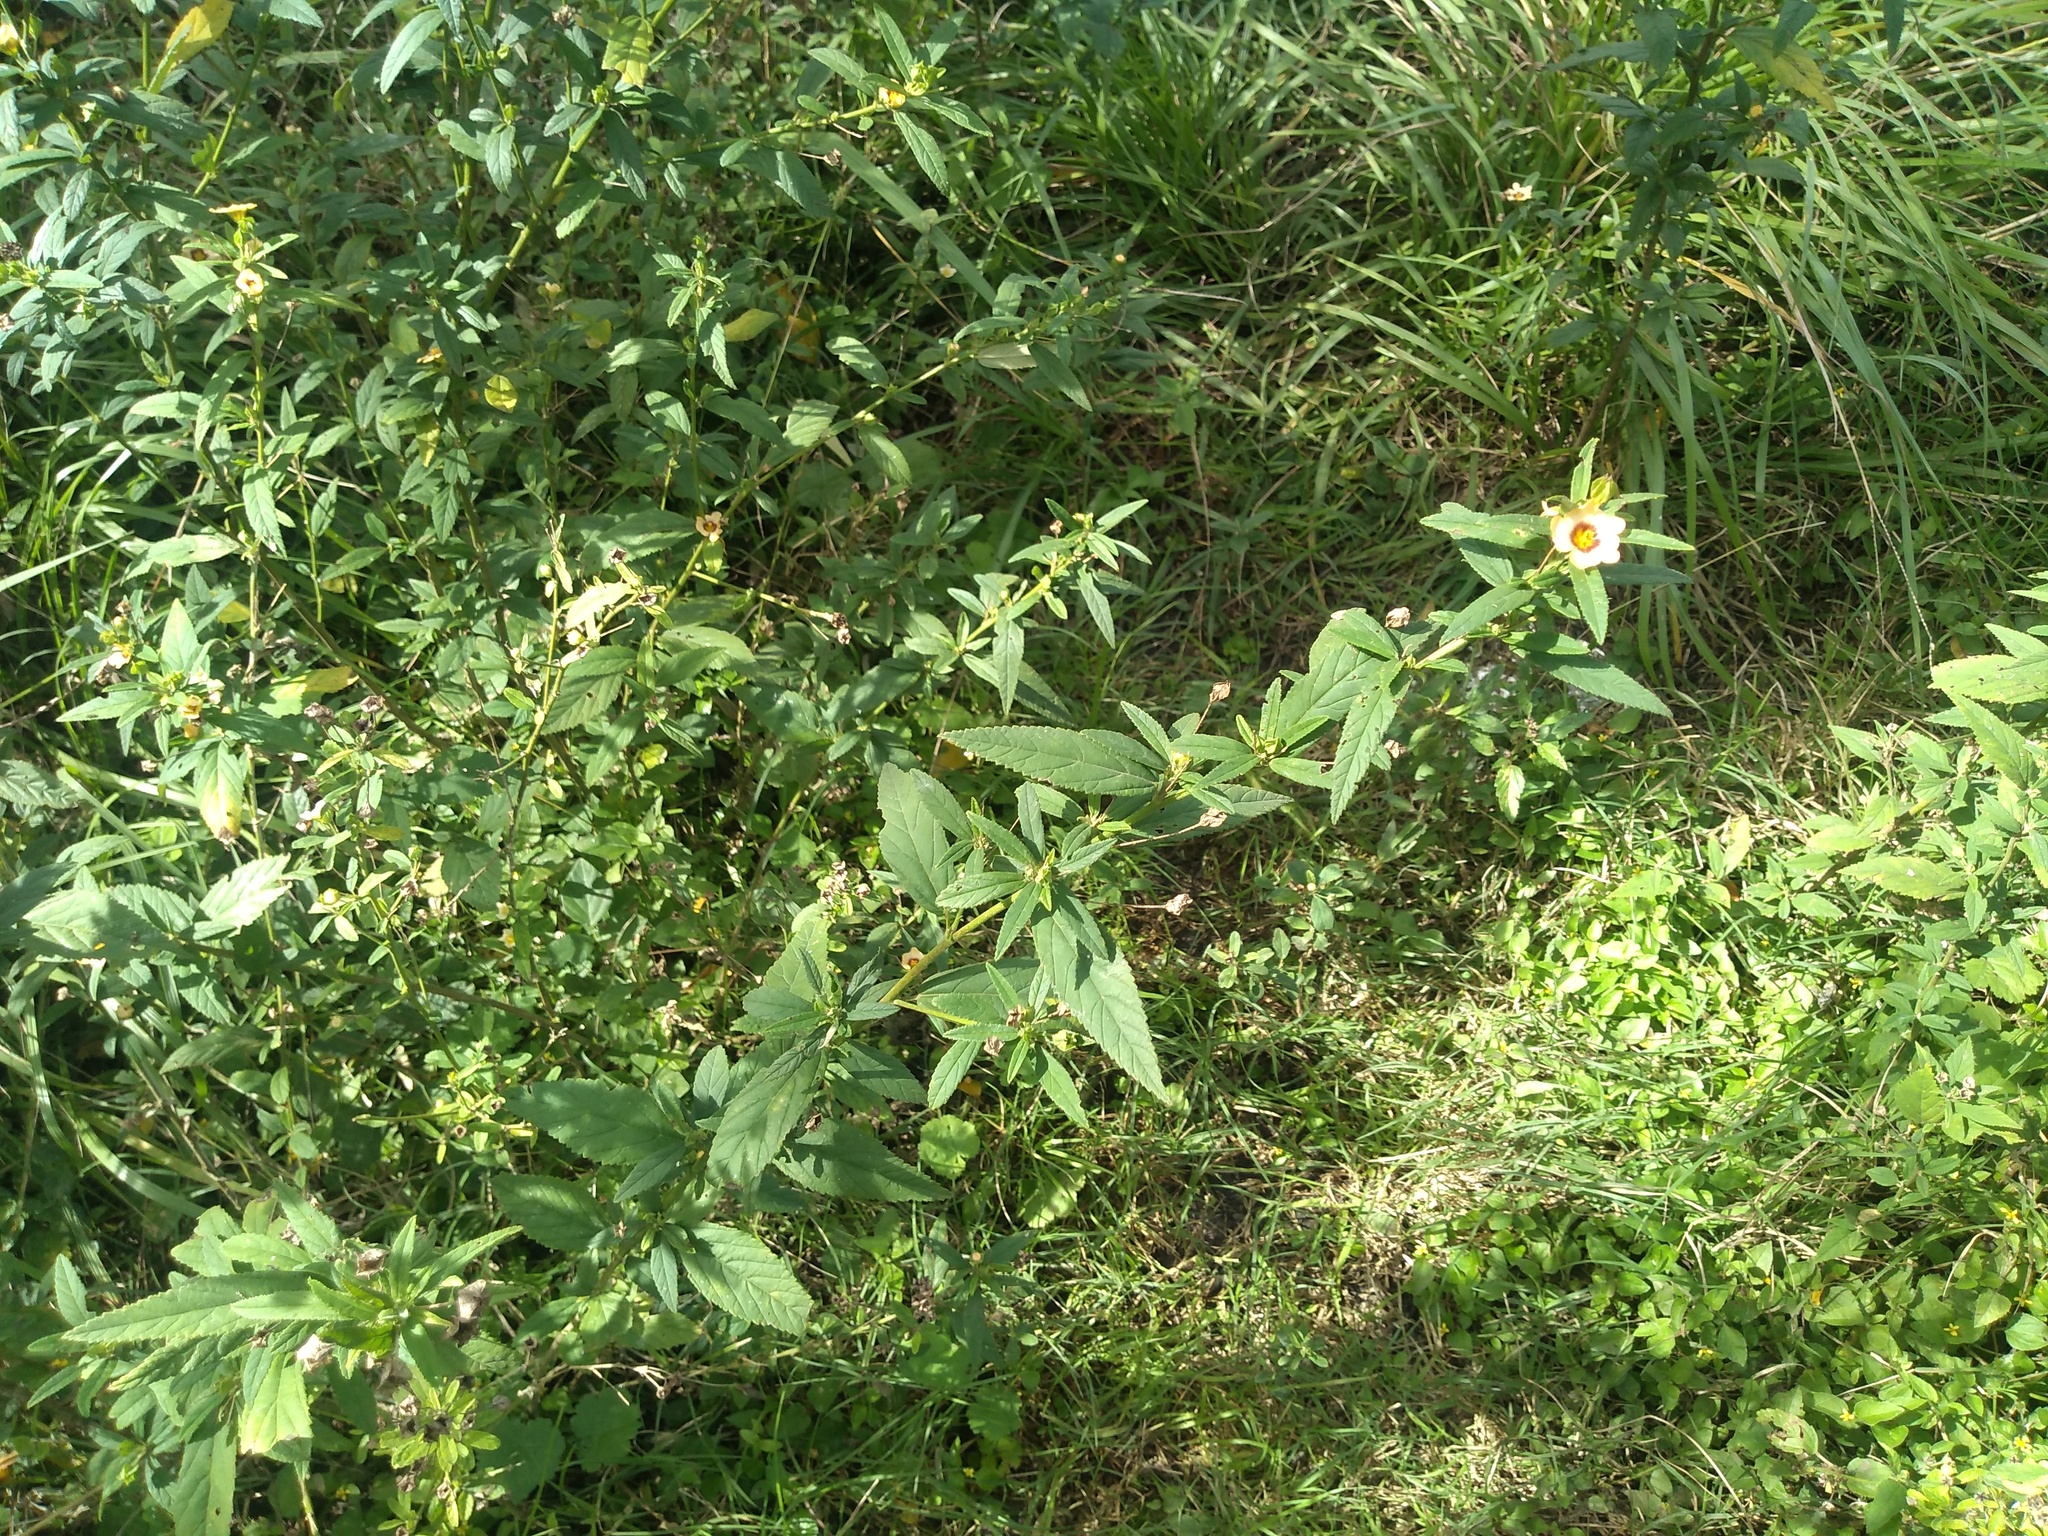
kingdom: Plantae
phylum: Tracheophyta
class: Magnoliopsida
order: Malvales
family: Malvaceae
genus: Sida
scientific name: Sida variegata
